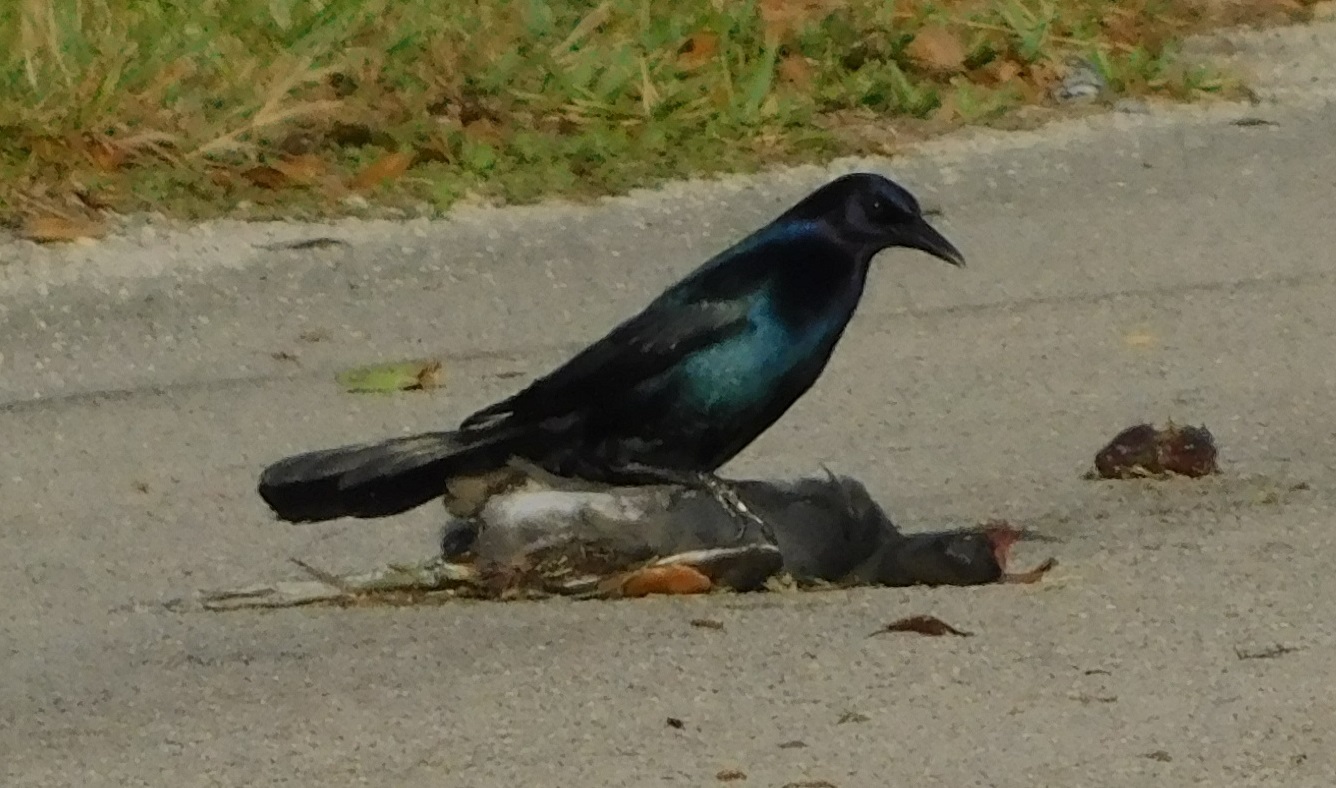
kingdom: Animalia
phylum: Chordata
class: Aves
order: Passeriformes
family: Icteridae
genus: Quiscalus
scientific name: Quiscalus major
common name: Boat-tailed grackle
